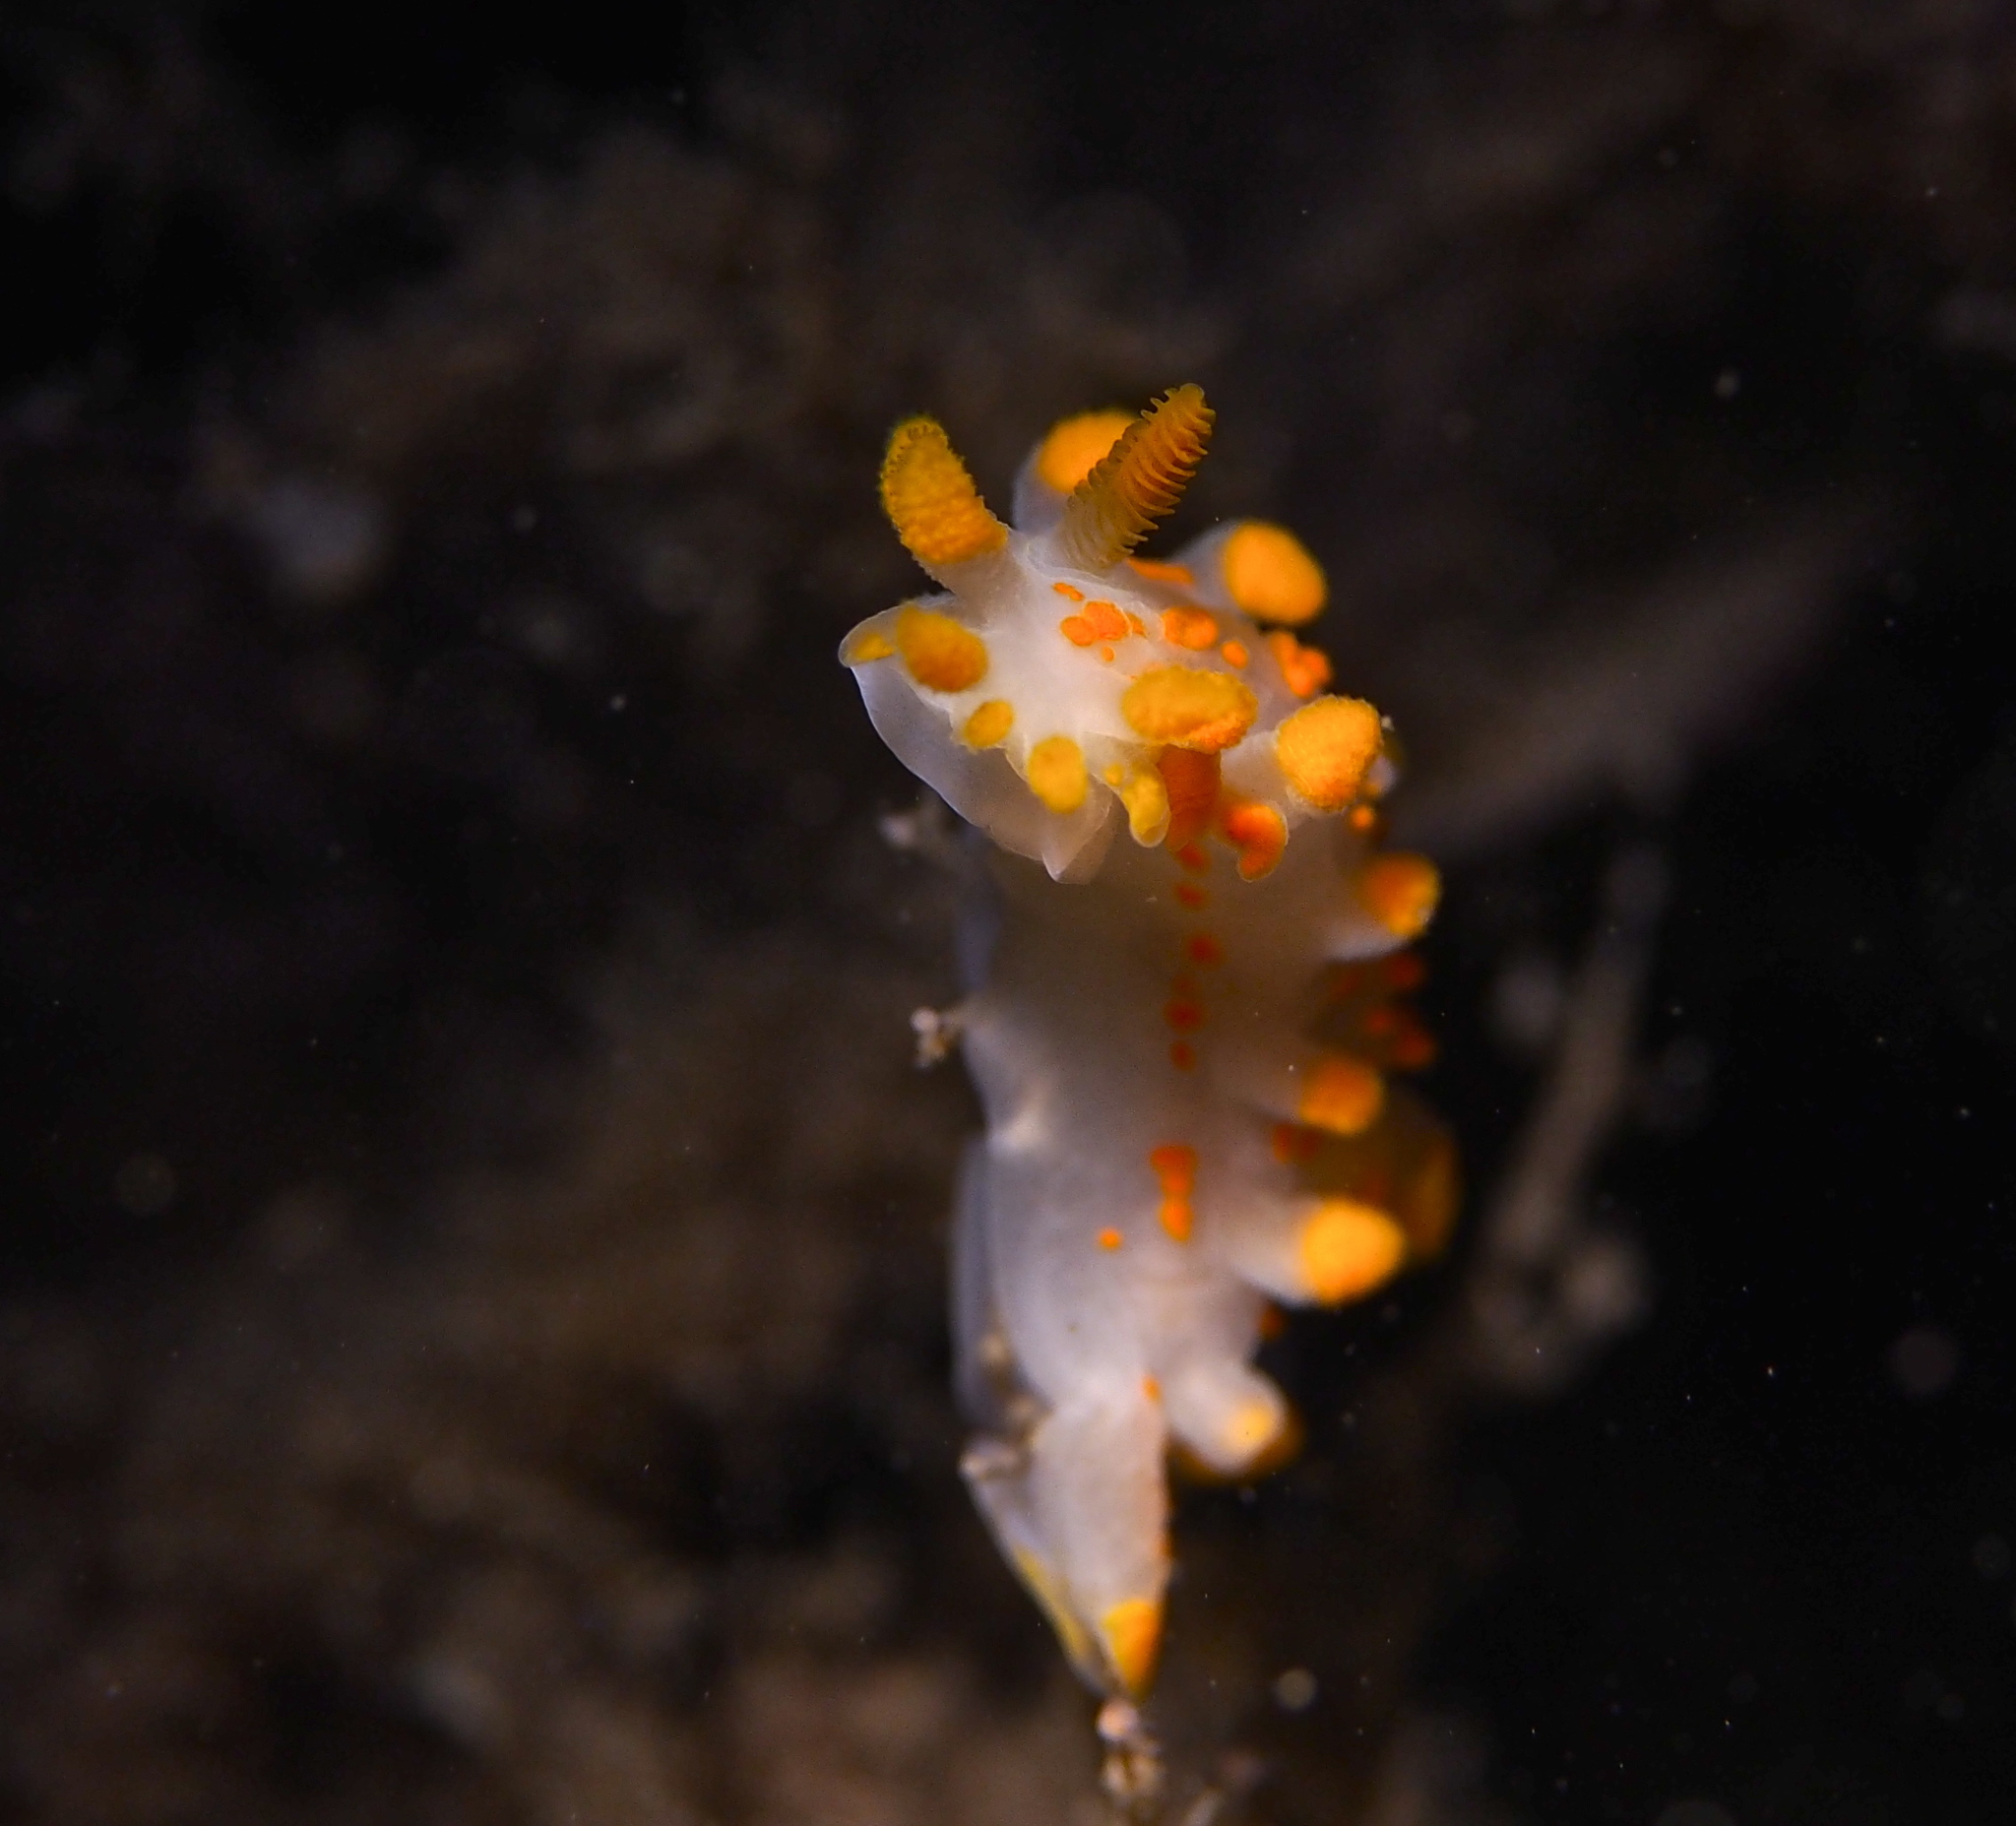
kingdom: Animalia
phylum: Mollusca
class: Gastropoda
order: Nudibranchia
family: Polyceridae
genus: Limacia
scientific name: Limacia clavigera
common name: Orange-clubbed sea slug
